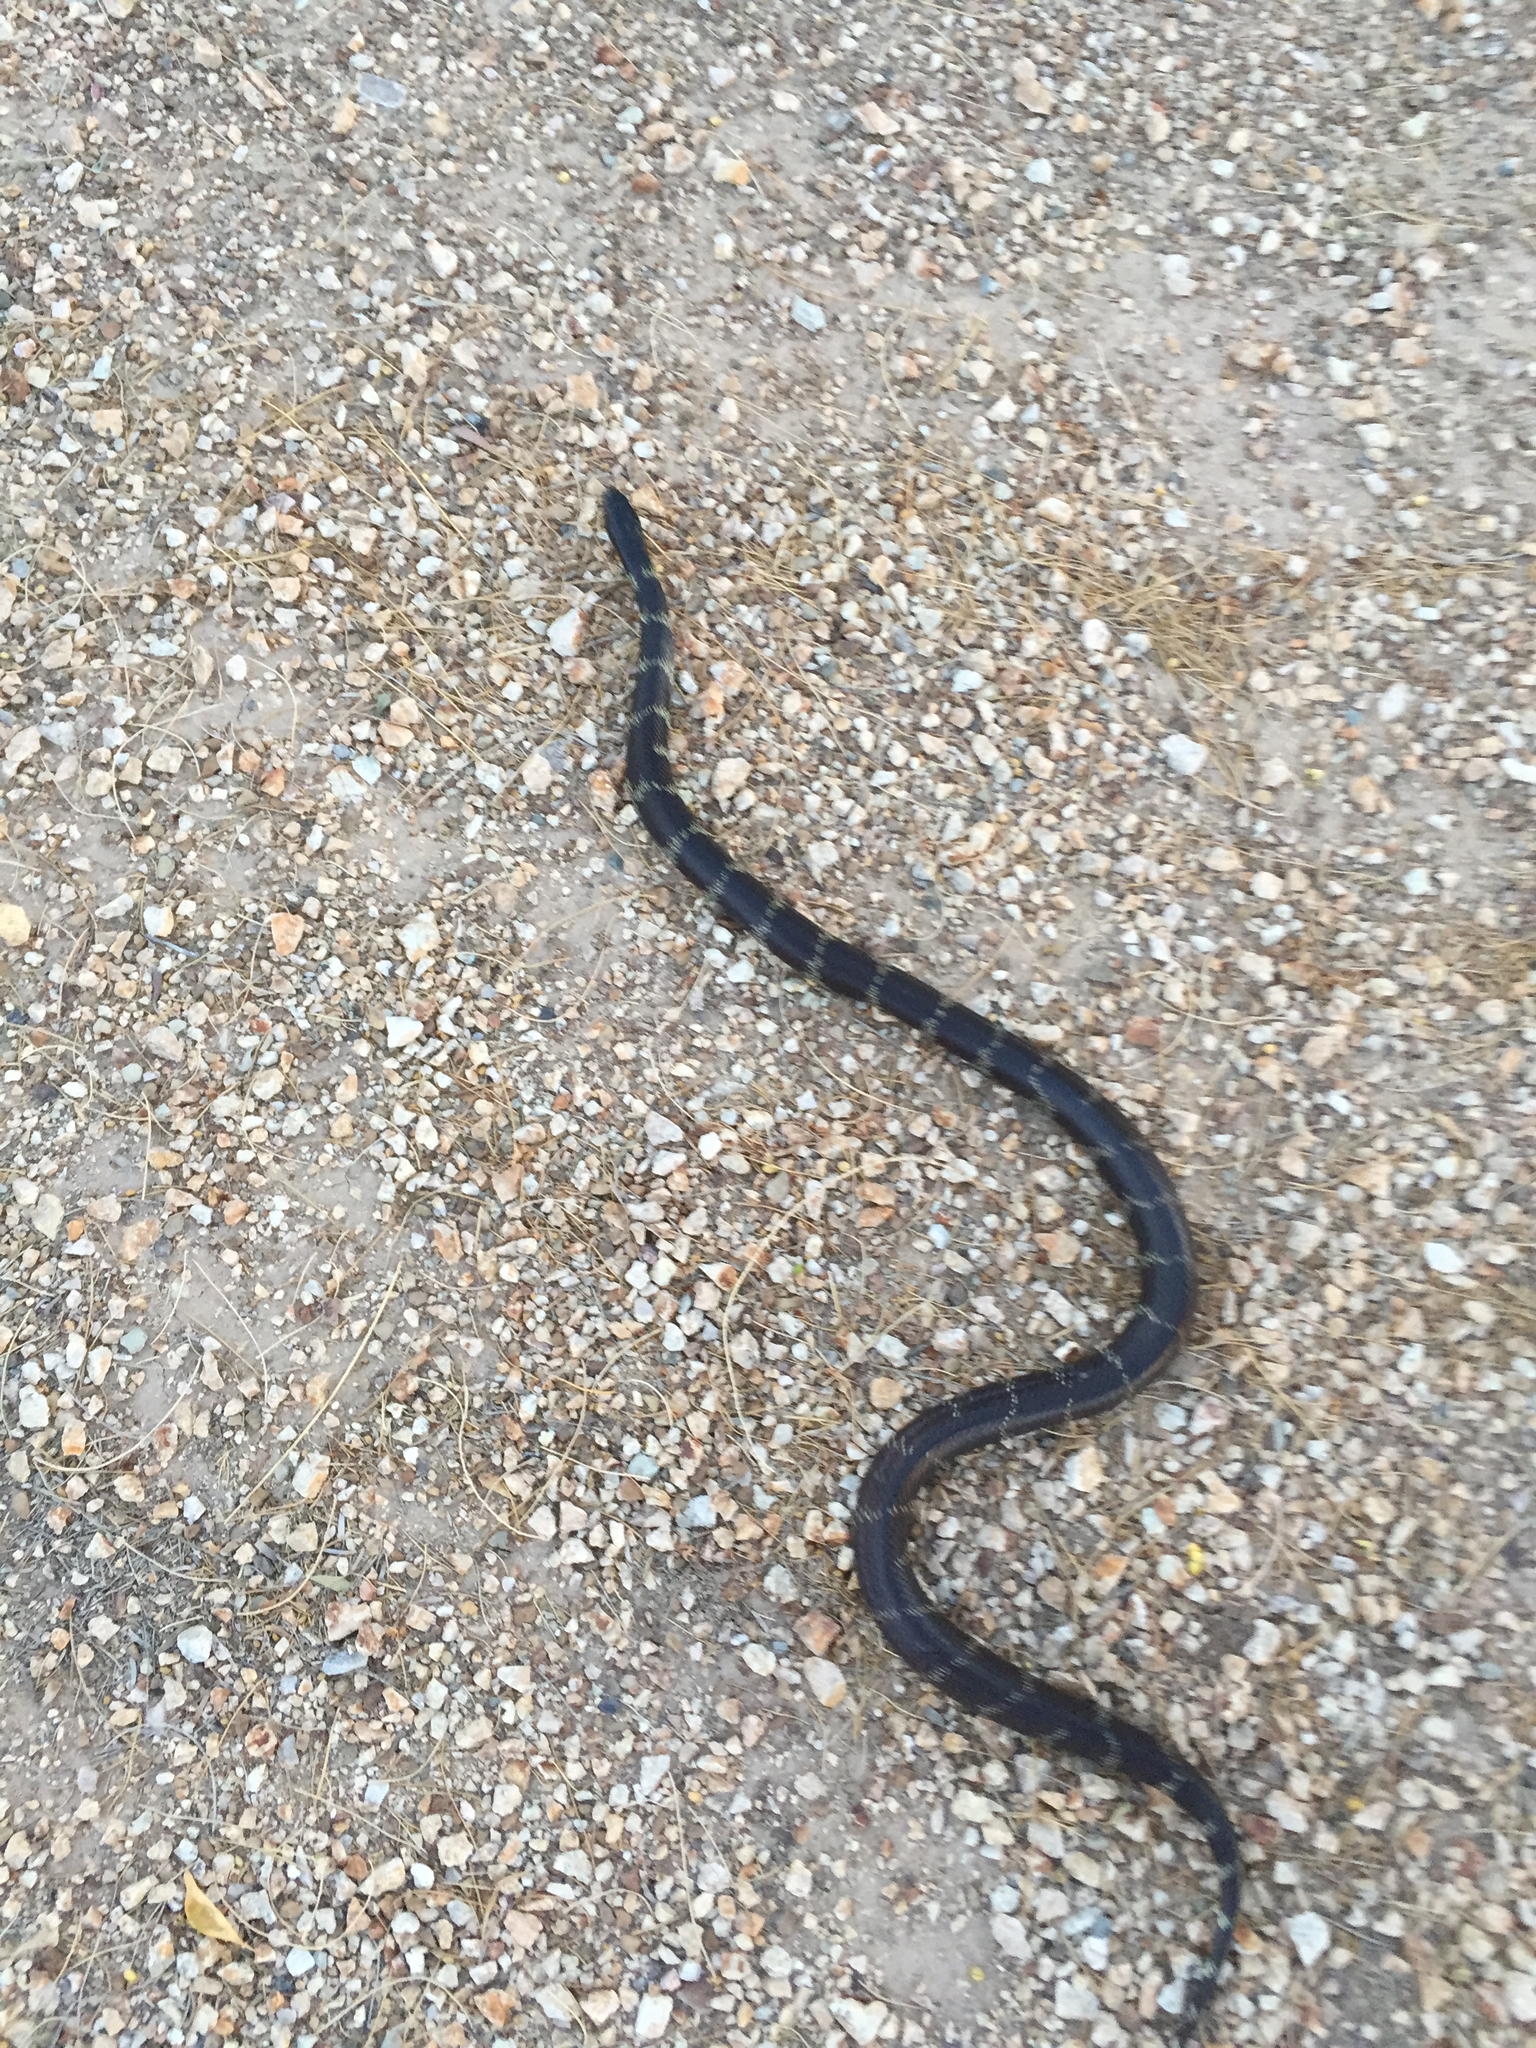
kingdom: Animalia
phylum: Chordata
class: Squamata
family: Colubridae
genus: Lampropeltis
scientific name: Lampropeltis
